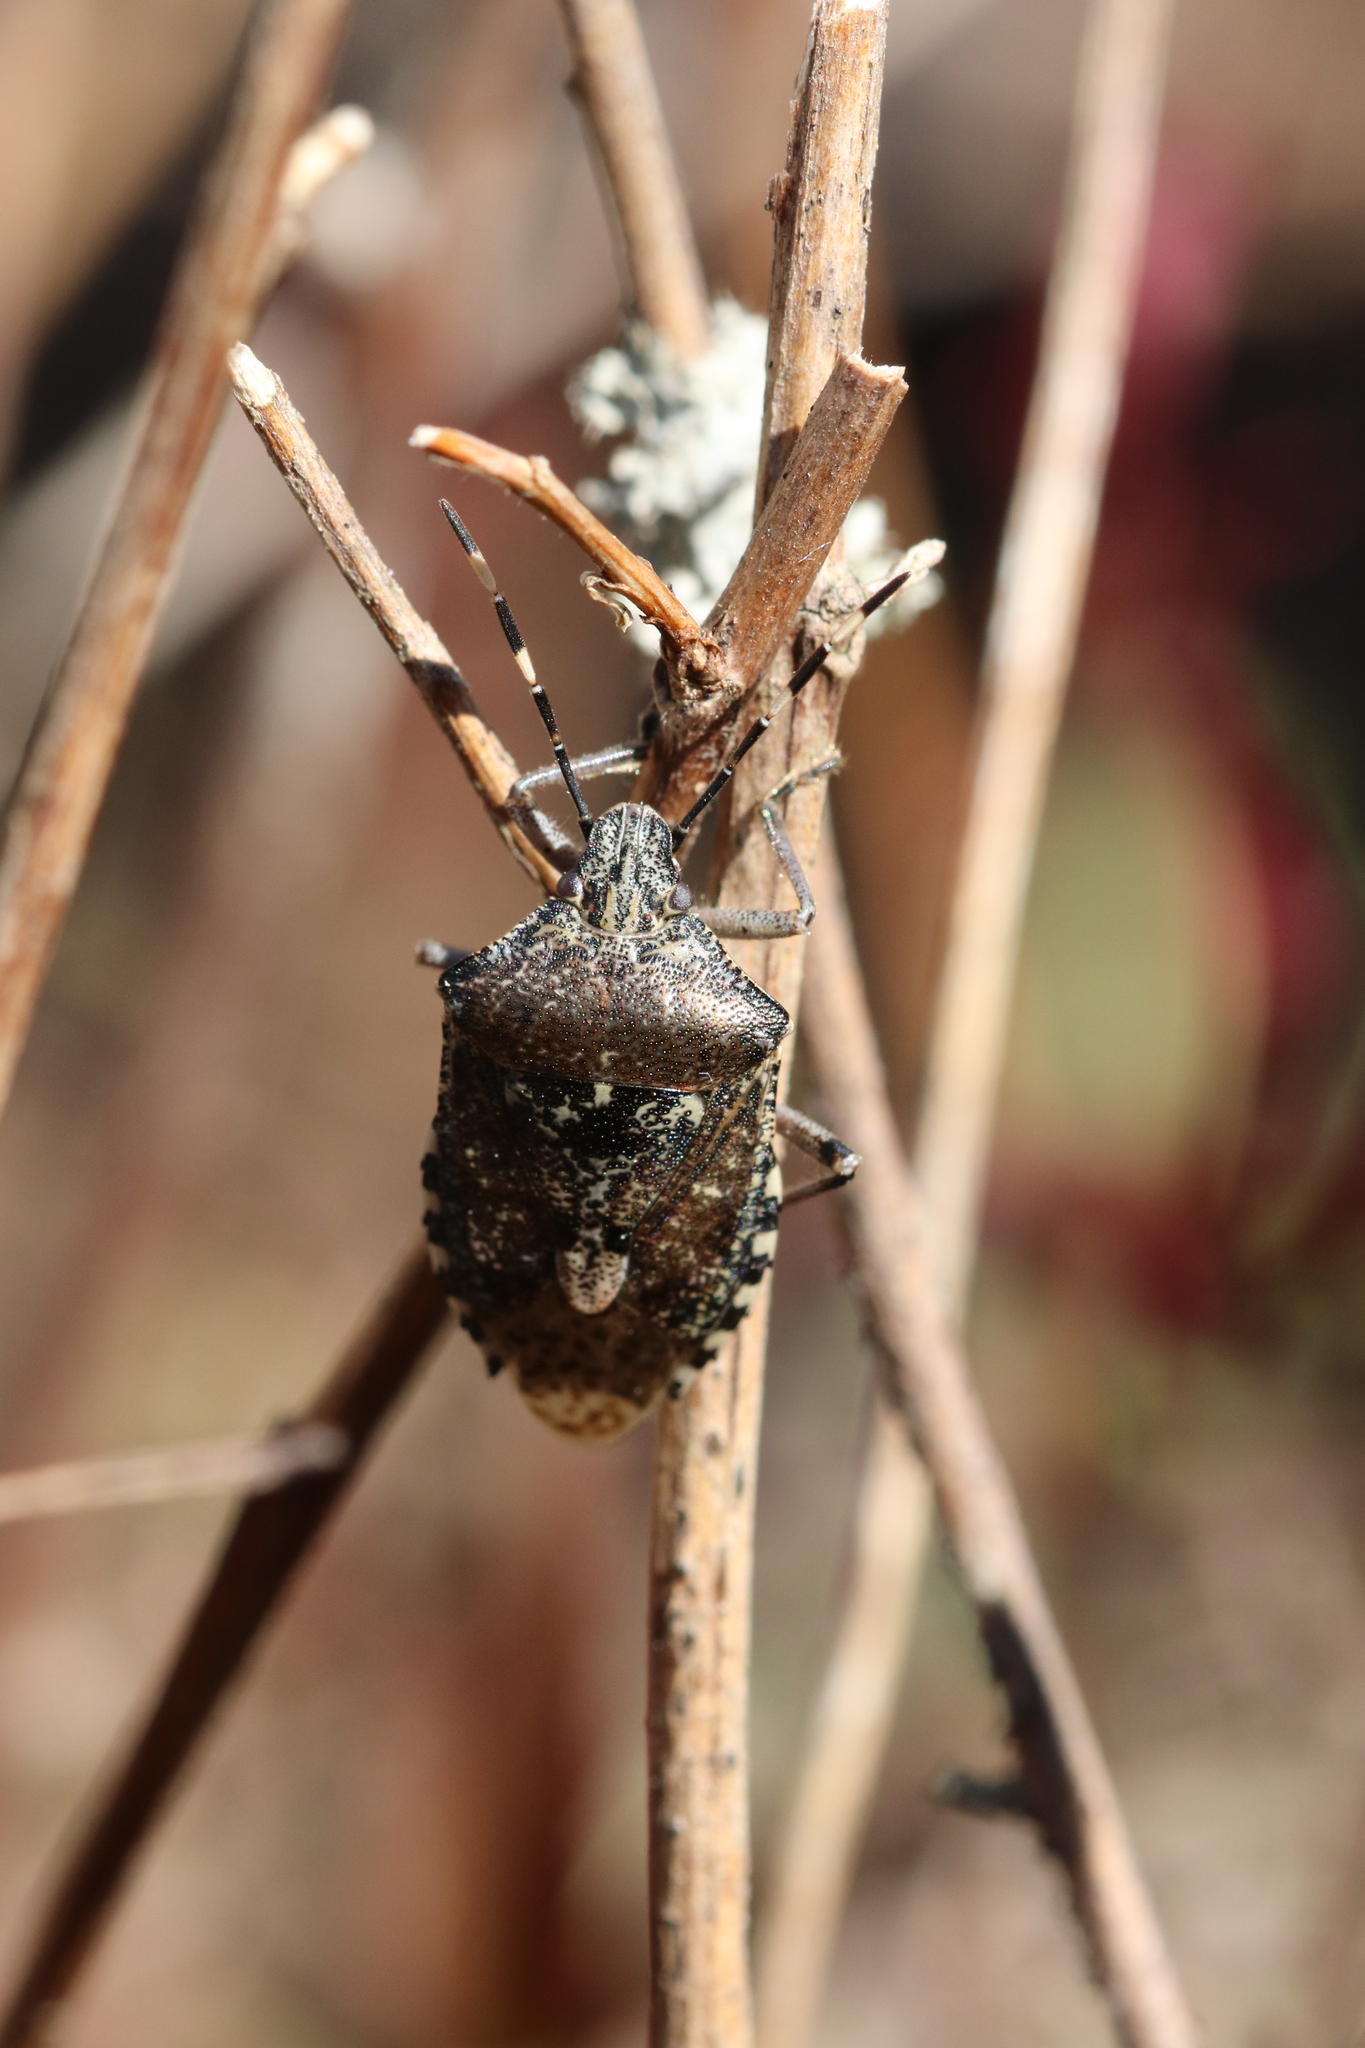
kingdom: Animalia
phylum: Arthropoda
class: Insecta
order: Hemiptera
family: Pentatomidae
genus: Rhaphigaster
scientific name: Rhaphigaster nebulosa
